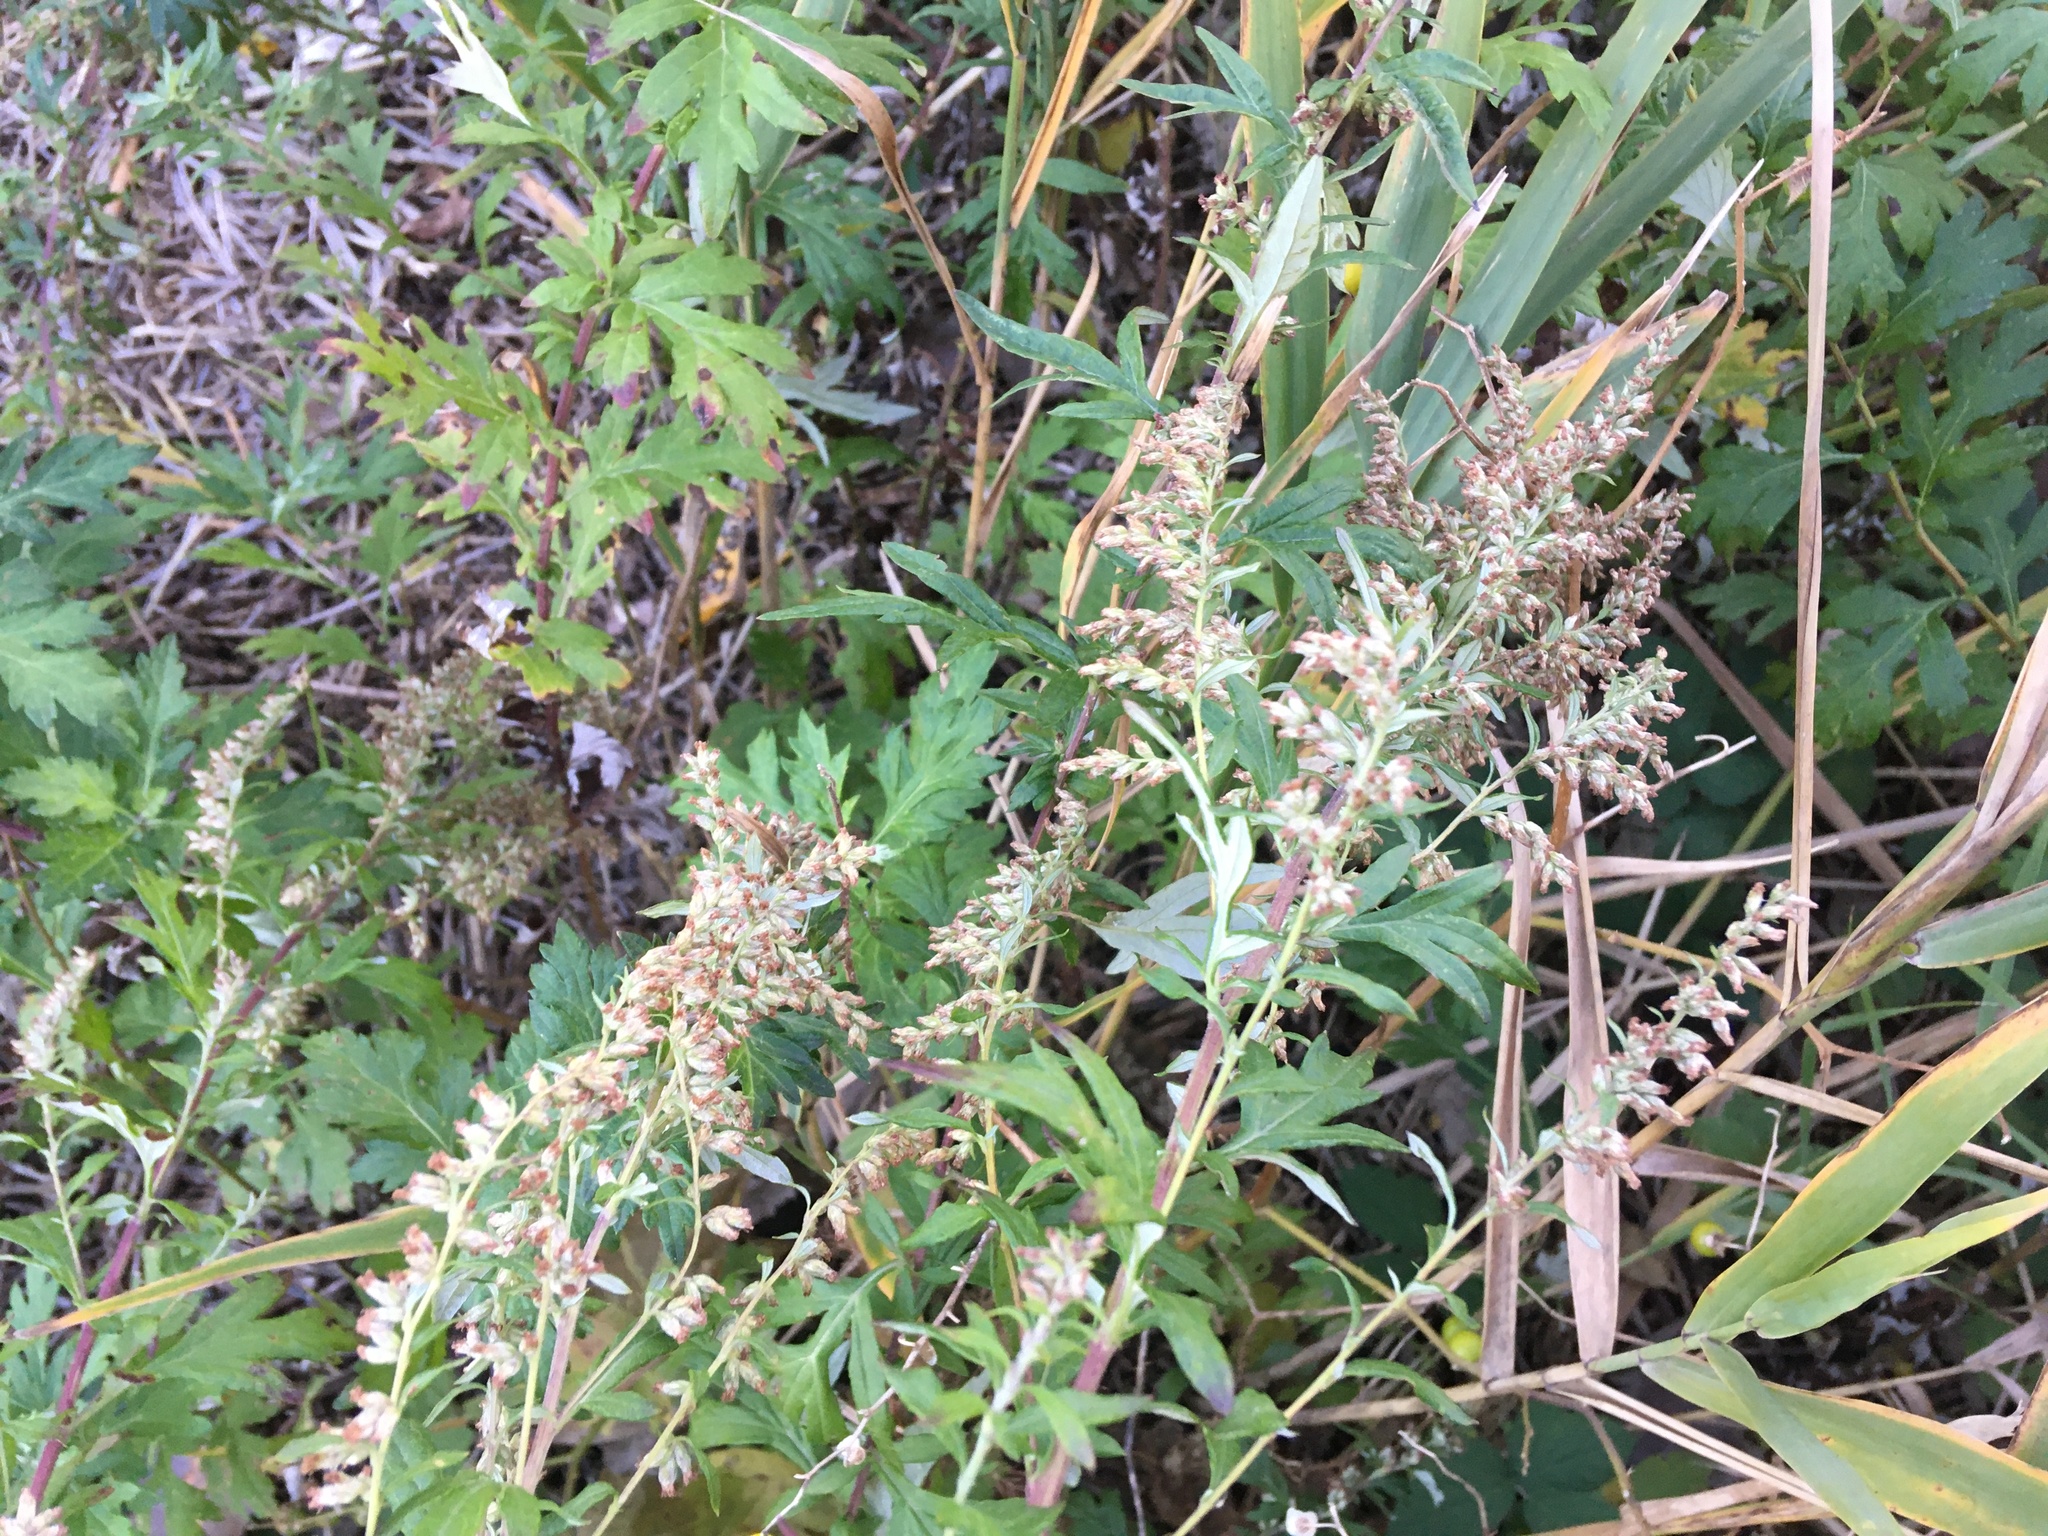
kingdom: Plantae
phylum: Tracheophyta
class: Magnoliopsida
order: Asterales
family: Asteraceae
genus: Artemisia
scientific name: Artemisia vulgaris
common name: Mugwort
